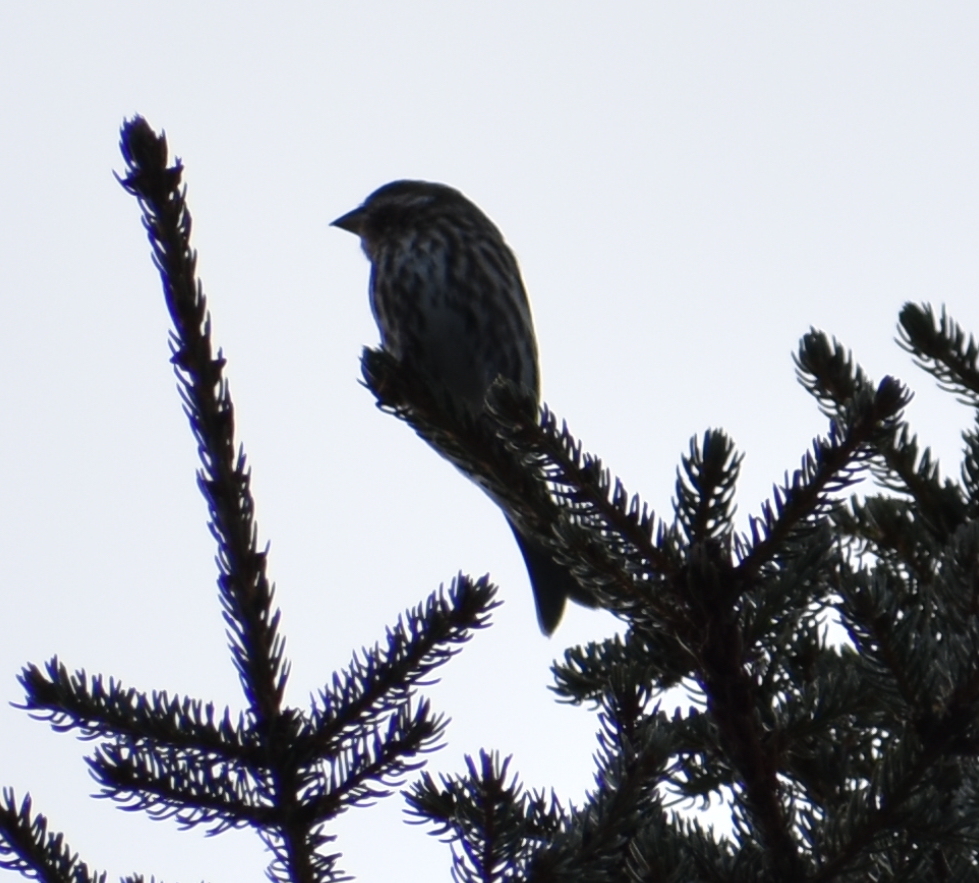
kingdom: Animalia
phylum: Chordata
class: Aves
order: Passeriformes
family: Fringillidae
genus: Haemorhous
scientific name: Haemorhous purpureus
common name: Purple finch
